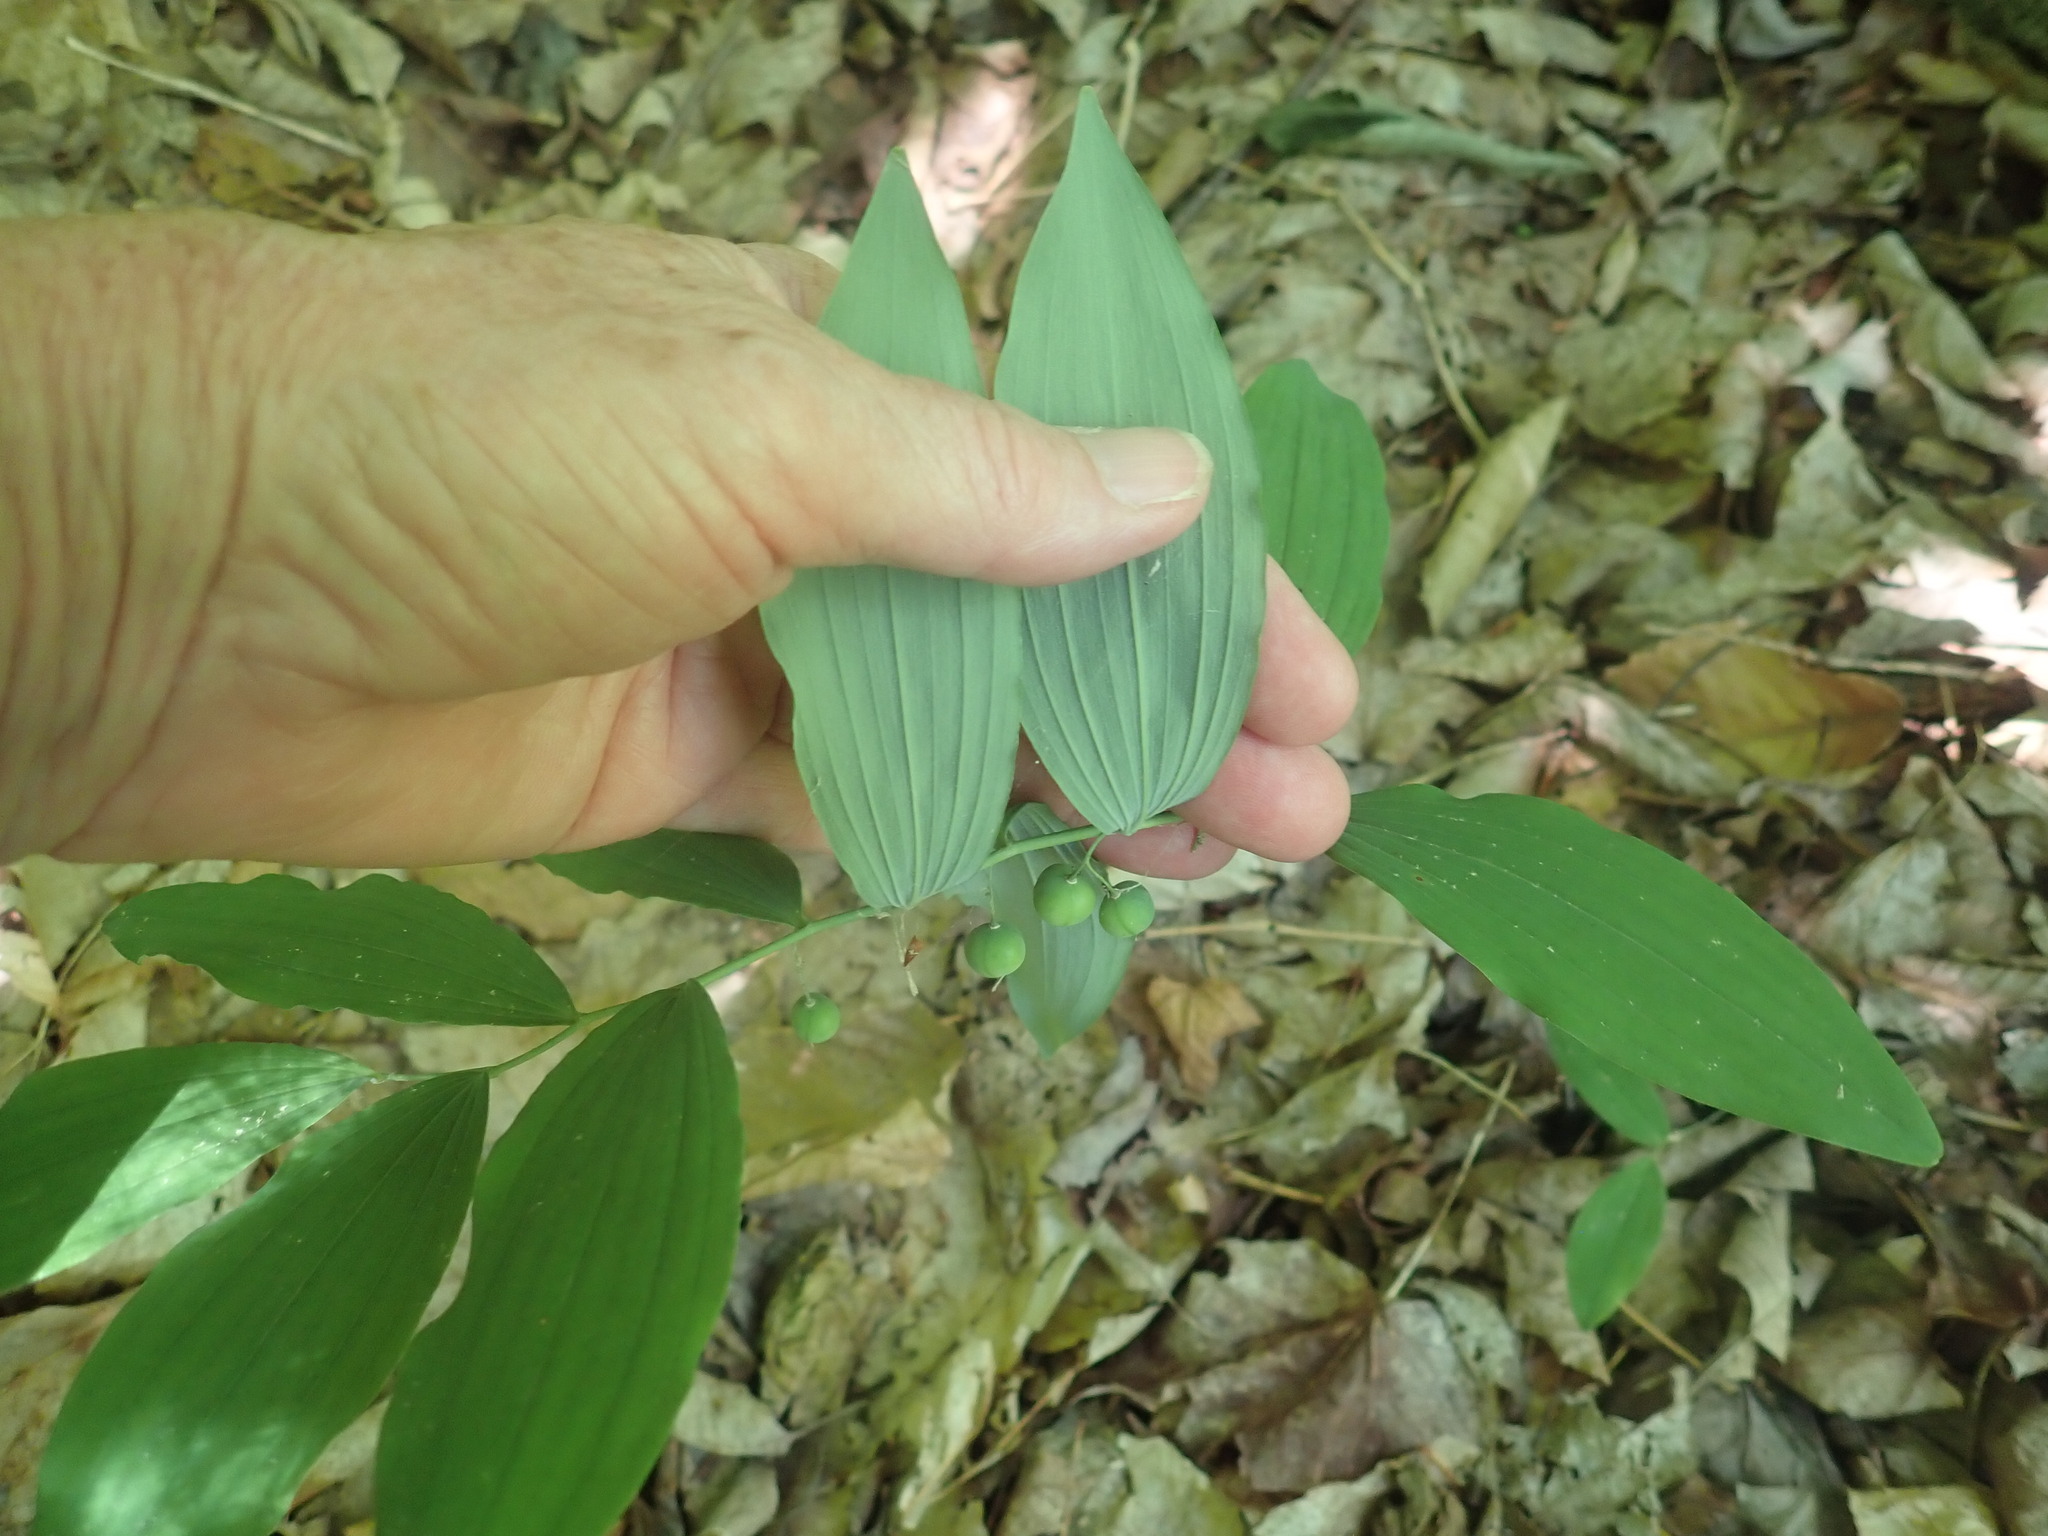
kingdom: Plantae
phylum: Tracheophyta
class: Liliopsida
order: Asparagales
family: Asparagaceae
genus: Polygonatum
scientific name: Polygonatum pubescens
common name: Downy solomon's seal
